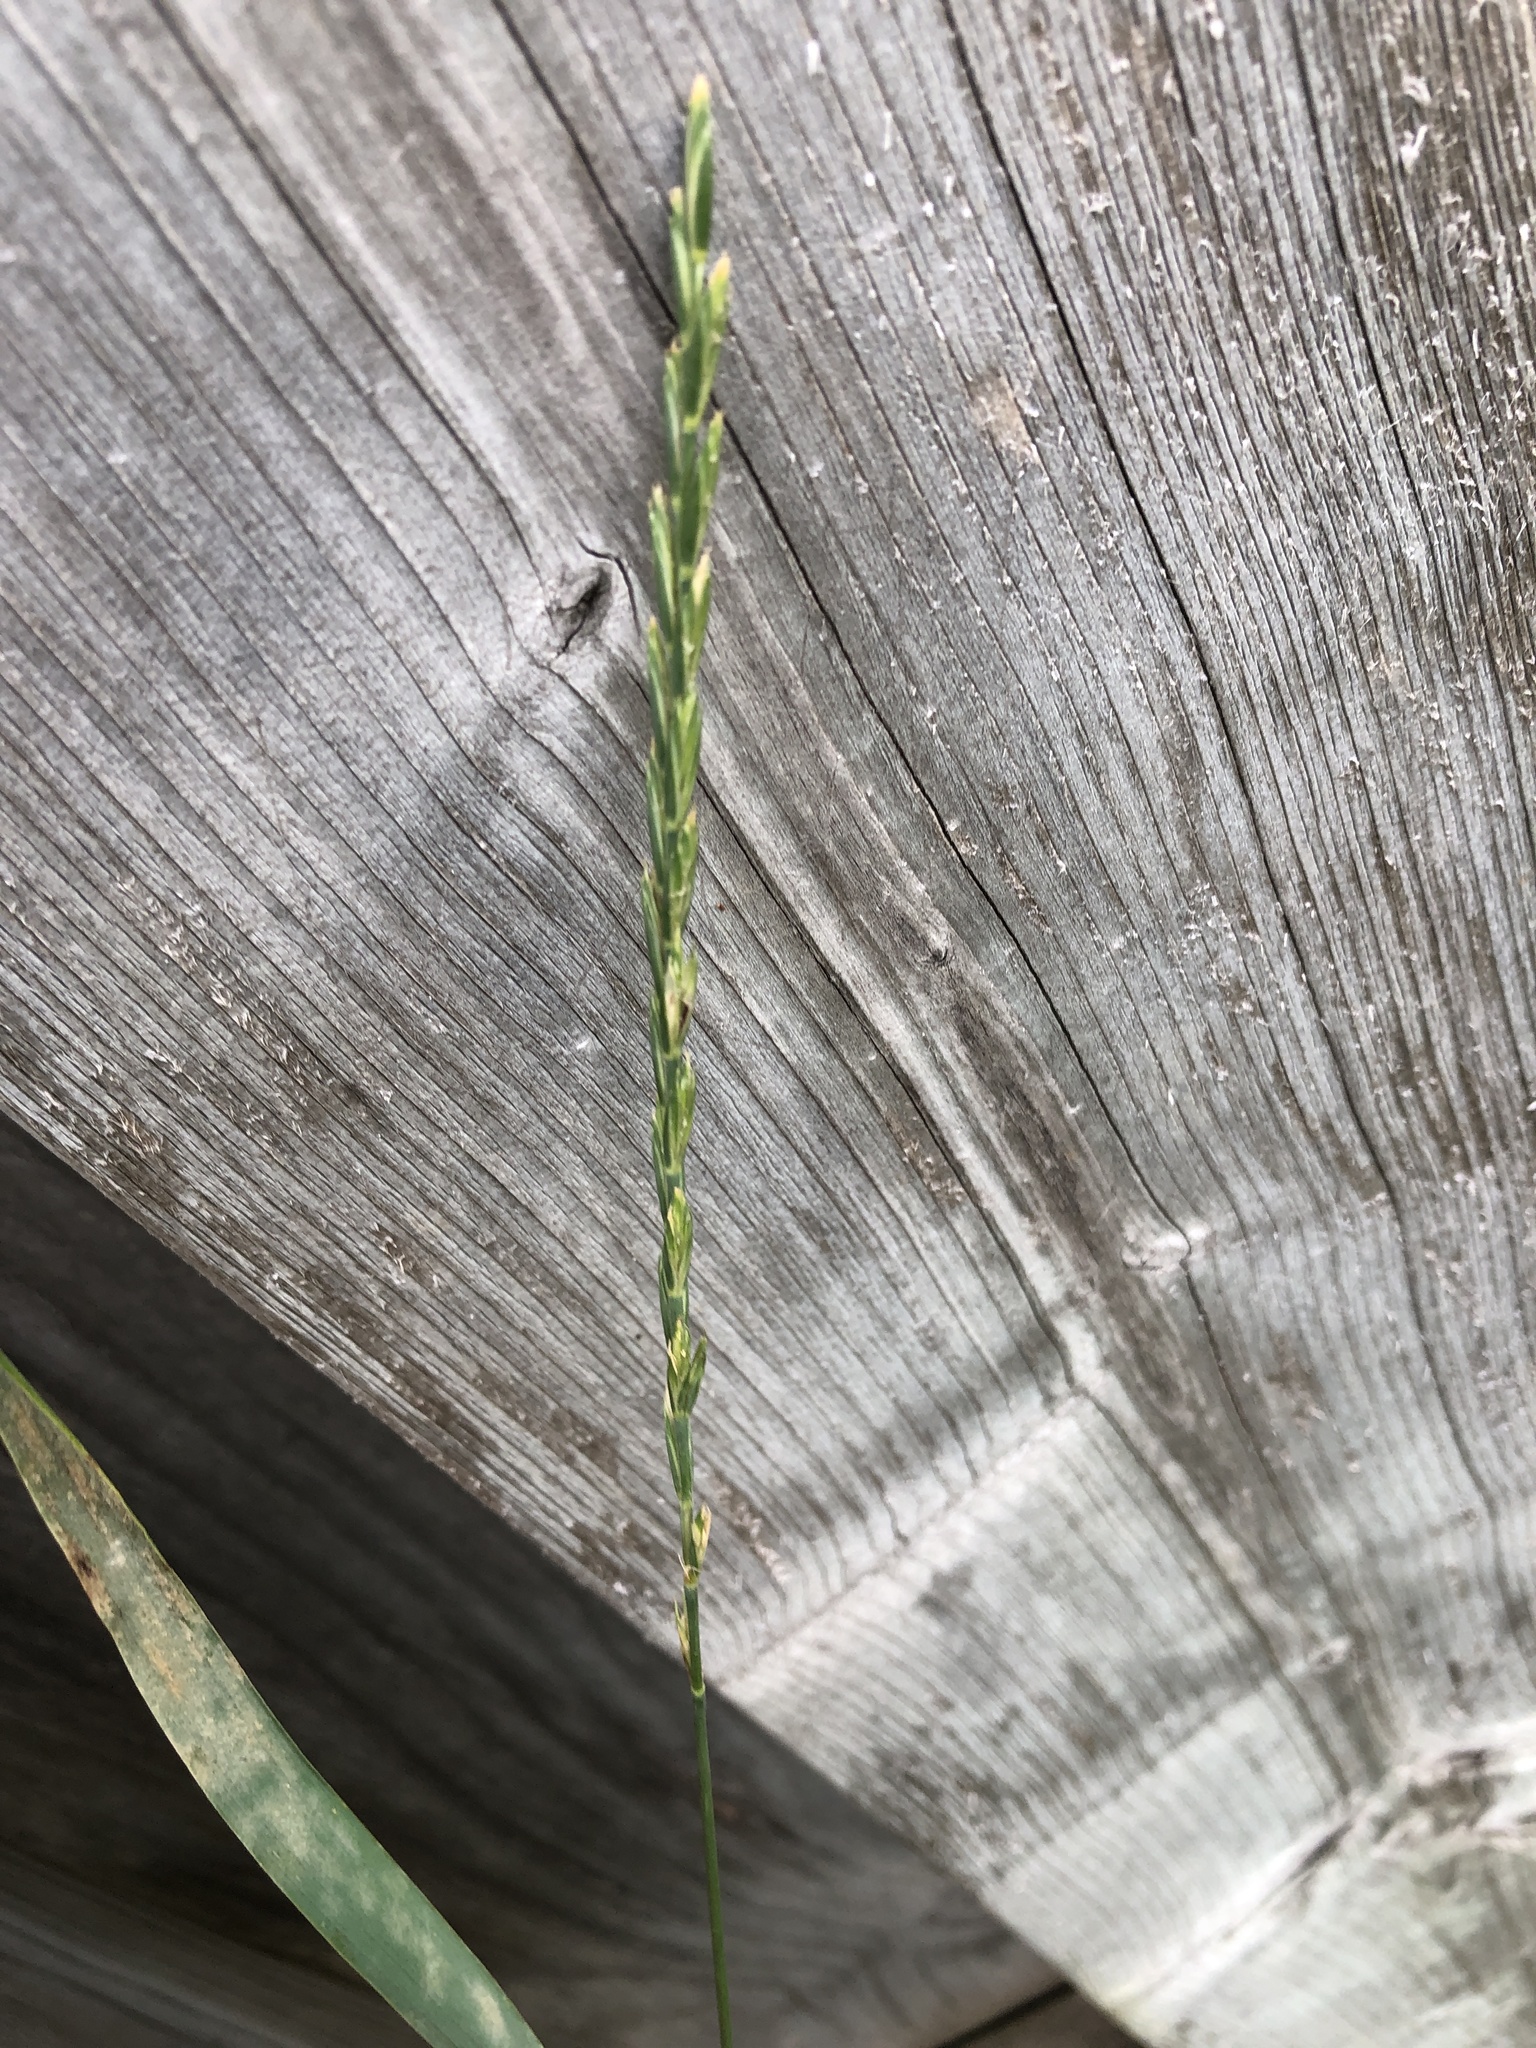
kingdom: Plantae
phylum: Tracheophyta
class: Liliopsida
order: Poales
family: Poaceae
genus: Elymus
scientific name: Elymus repens
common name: Quackgrass
